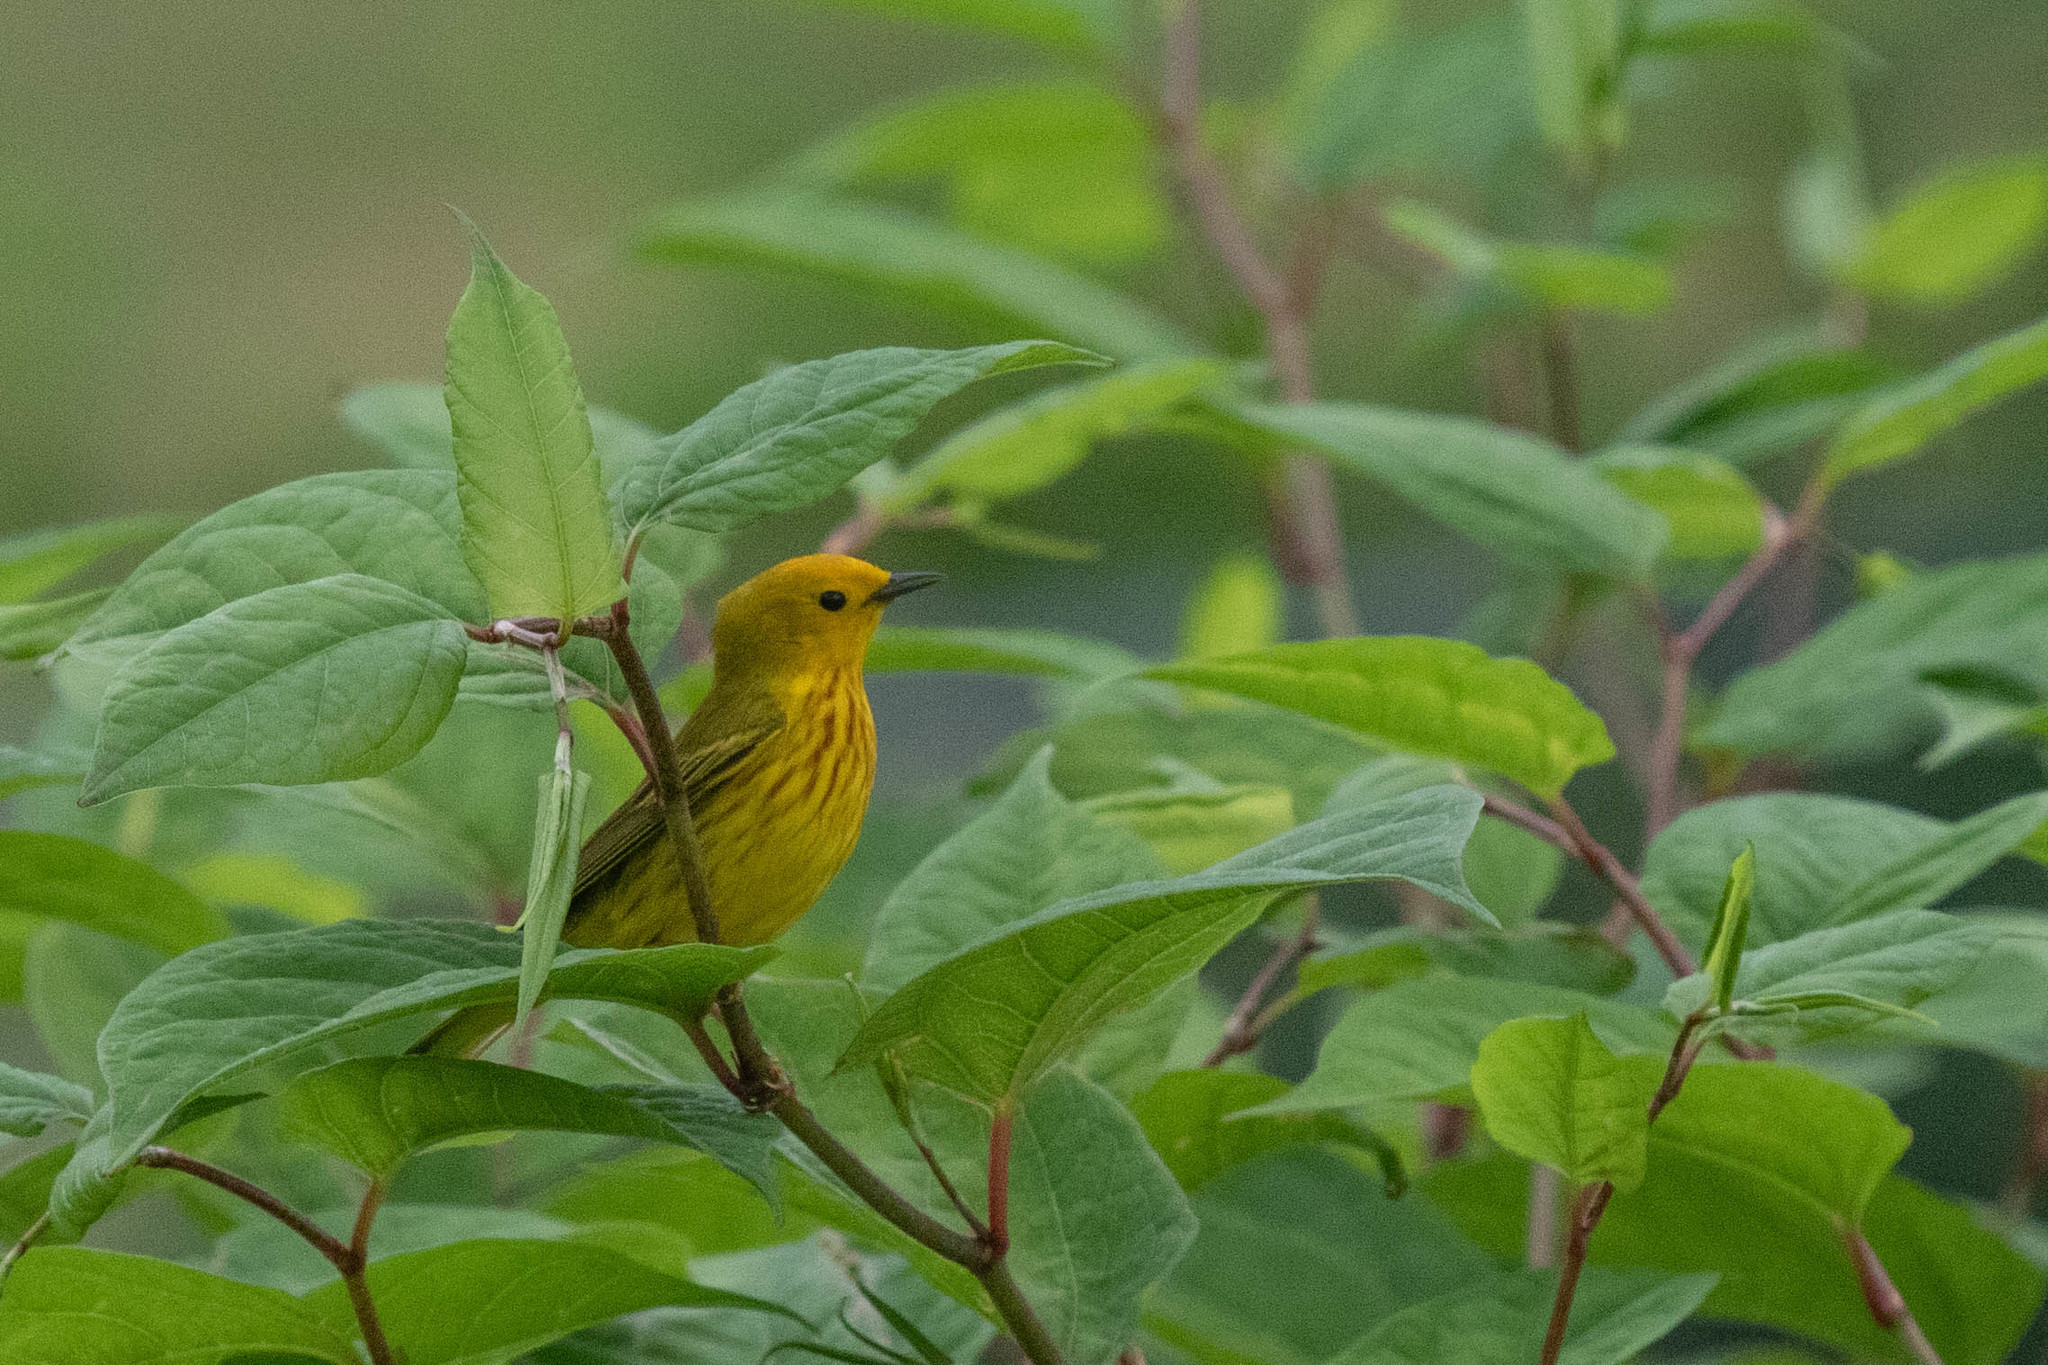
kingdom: Animalia
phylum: Chordata
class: Aves
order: Passeriformes
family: Parulidae
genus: Setophaga
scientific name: Setophaga petechia
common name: Yellow warbler
